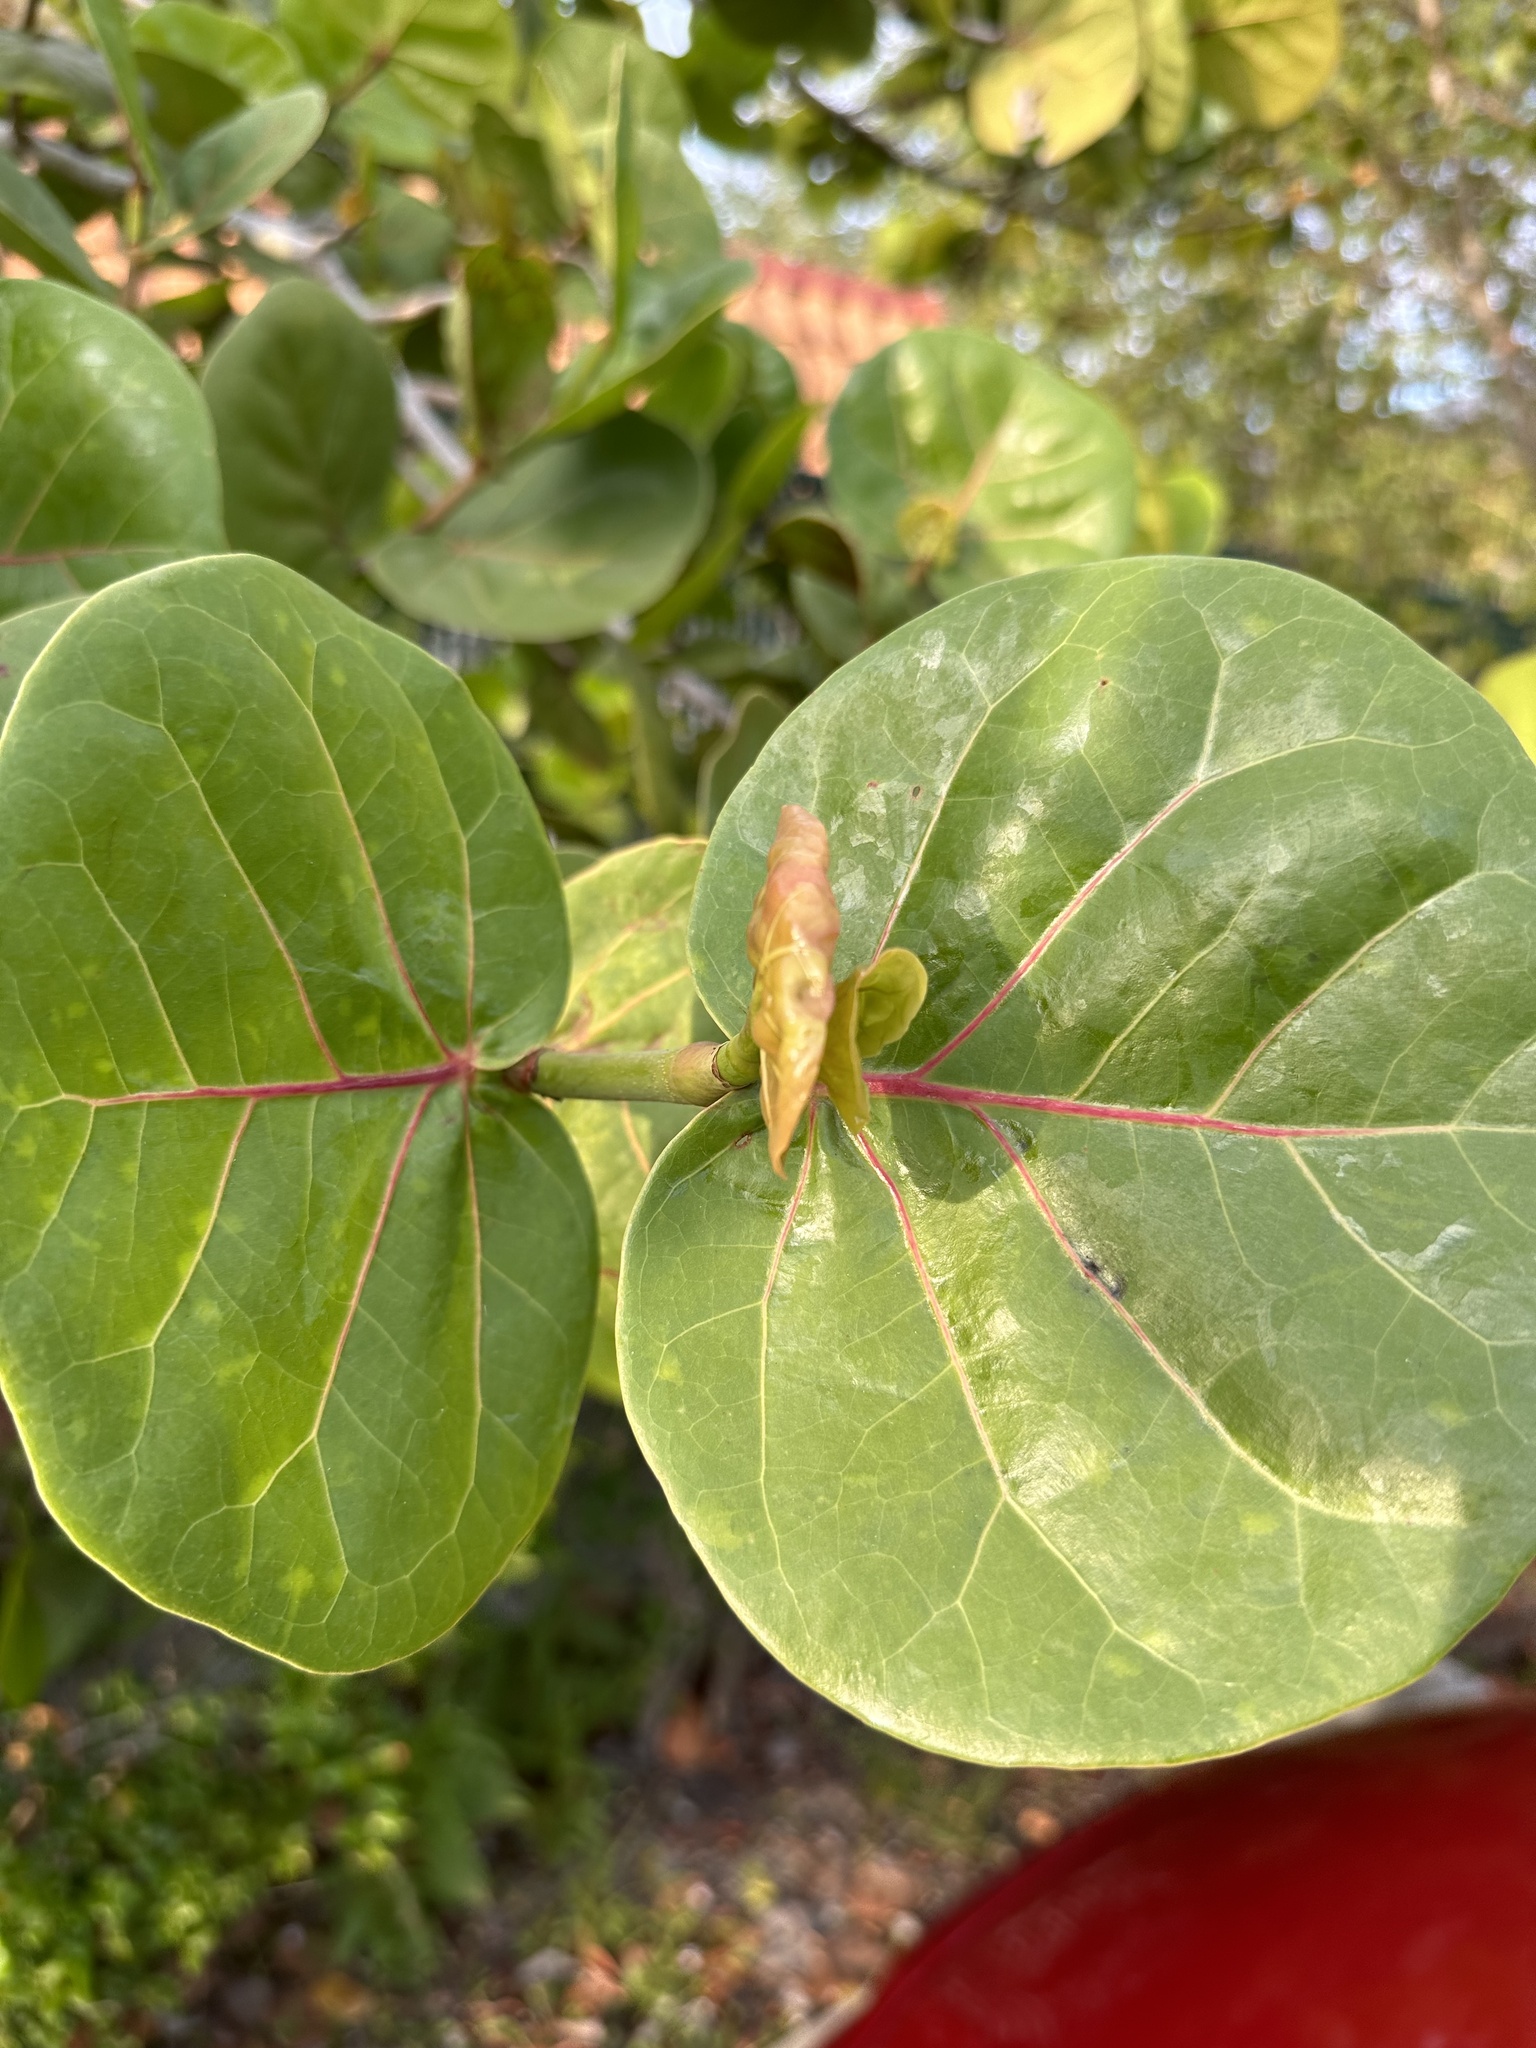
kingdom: Plantae
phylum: Tracheophyta
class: Magnoliopsida
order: Caryophyllales
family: Polygonaceae
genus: Coccoloba
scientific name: Coccoloba uvifera
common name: Seagrape
